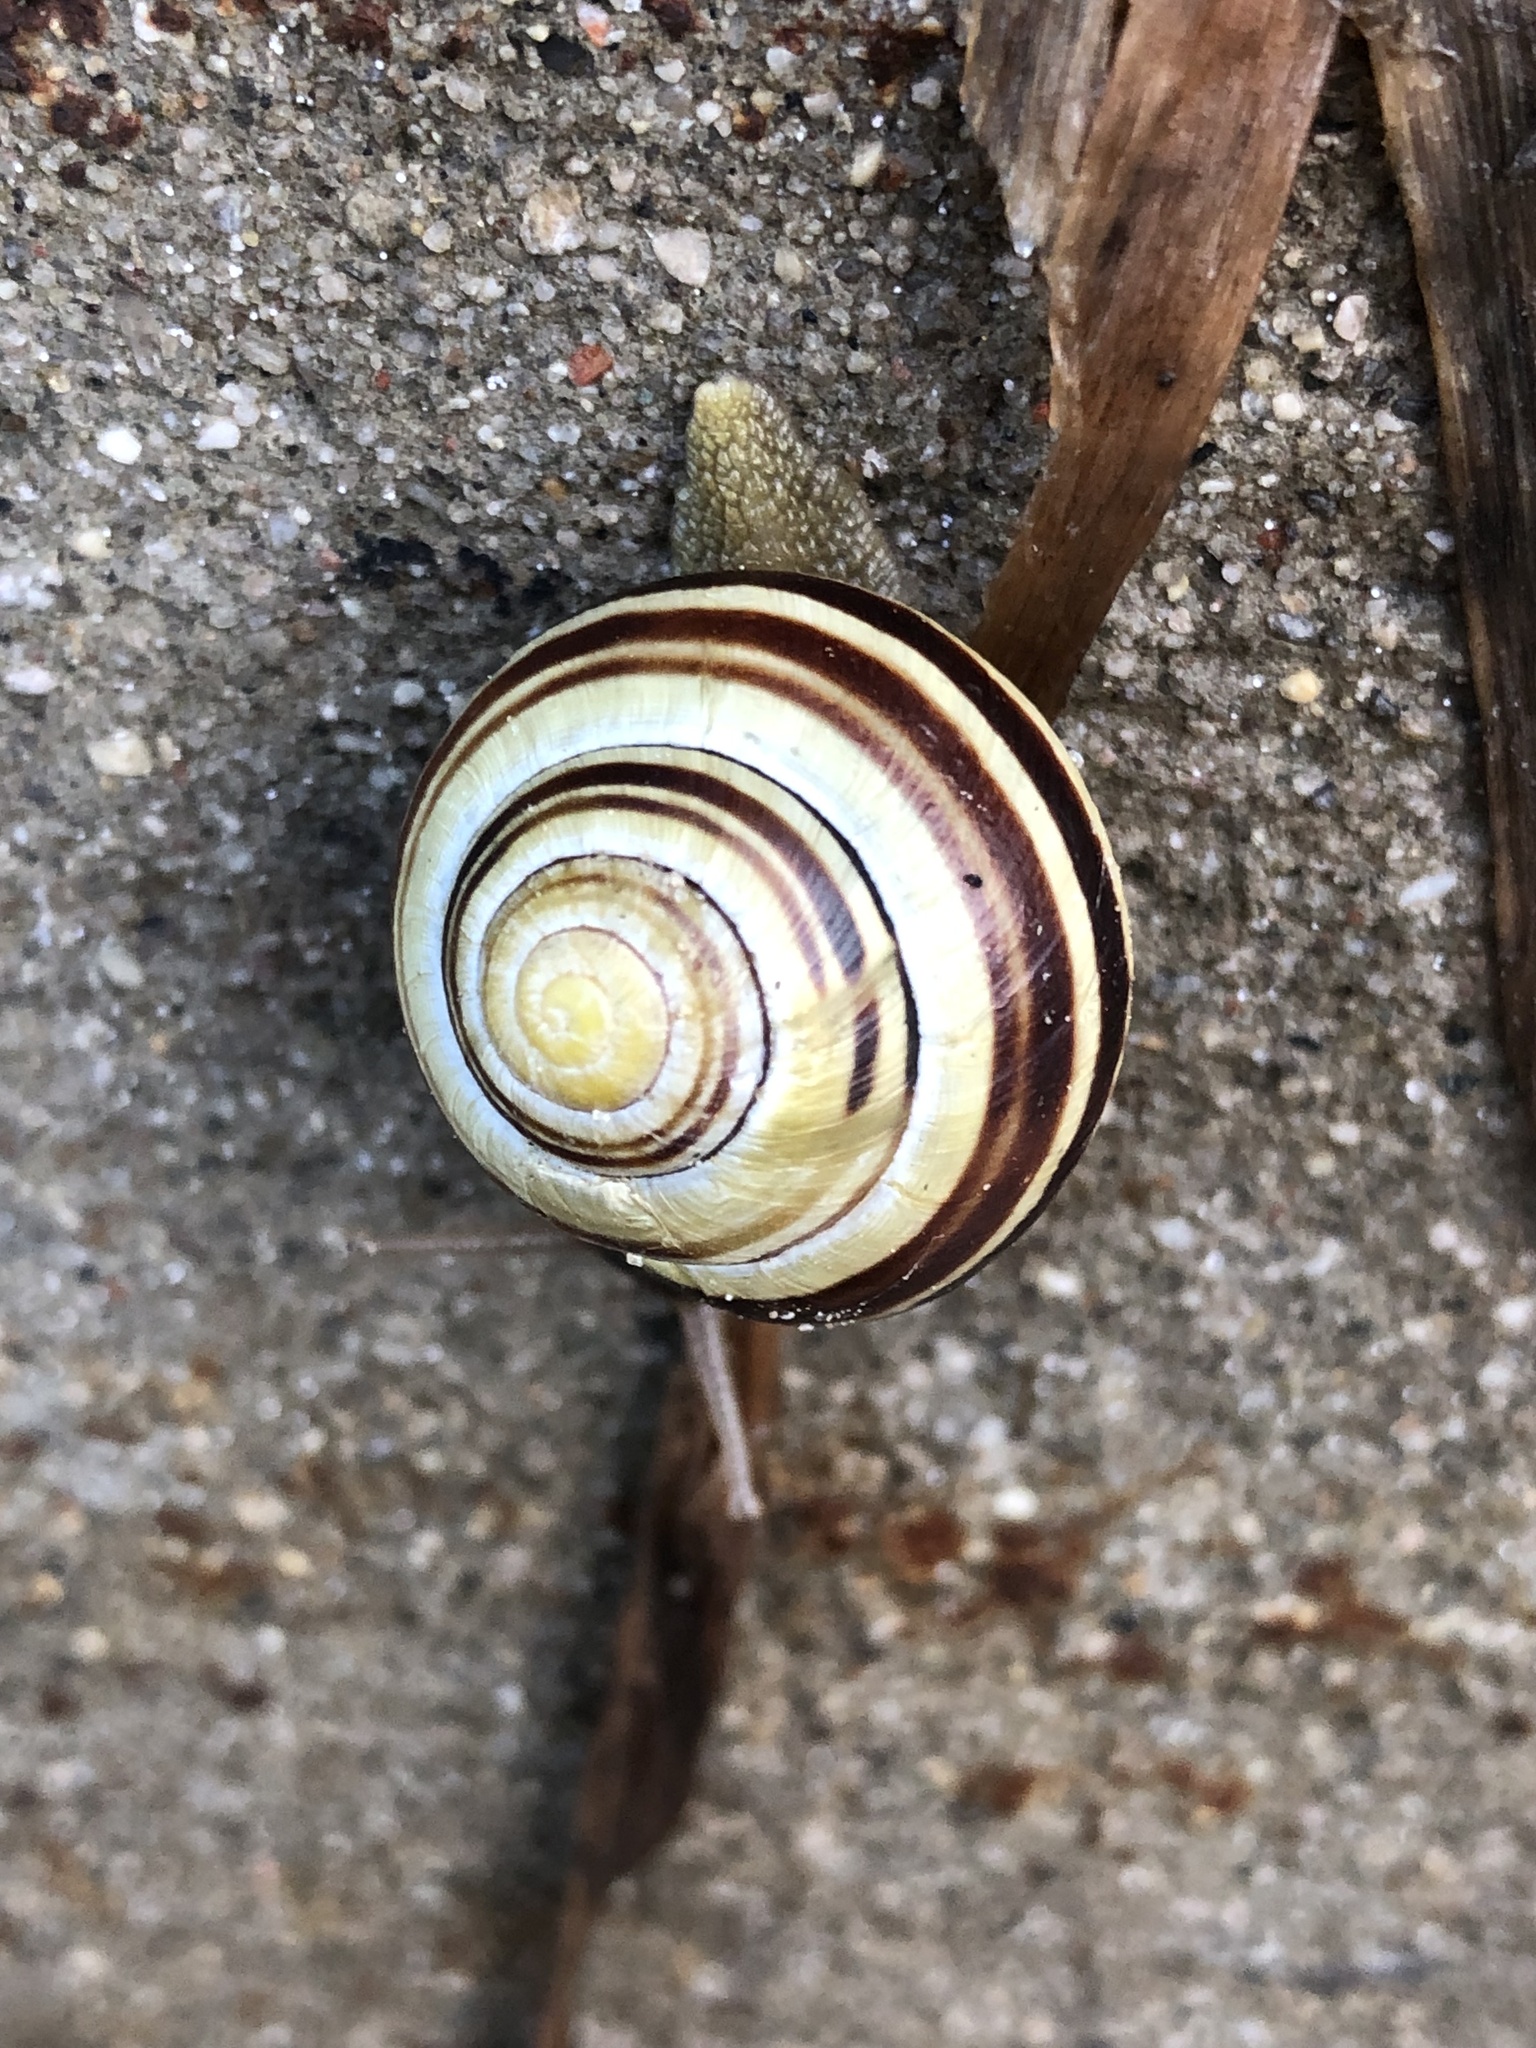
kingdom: Animalia
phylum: Mollusca
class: Gastropoda
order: Stylommatophora
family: Helicidae
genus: Cepaea
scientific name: Cepaea nemoralis
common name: Grovesnail
